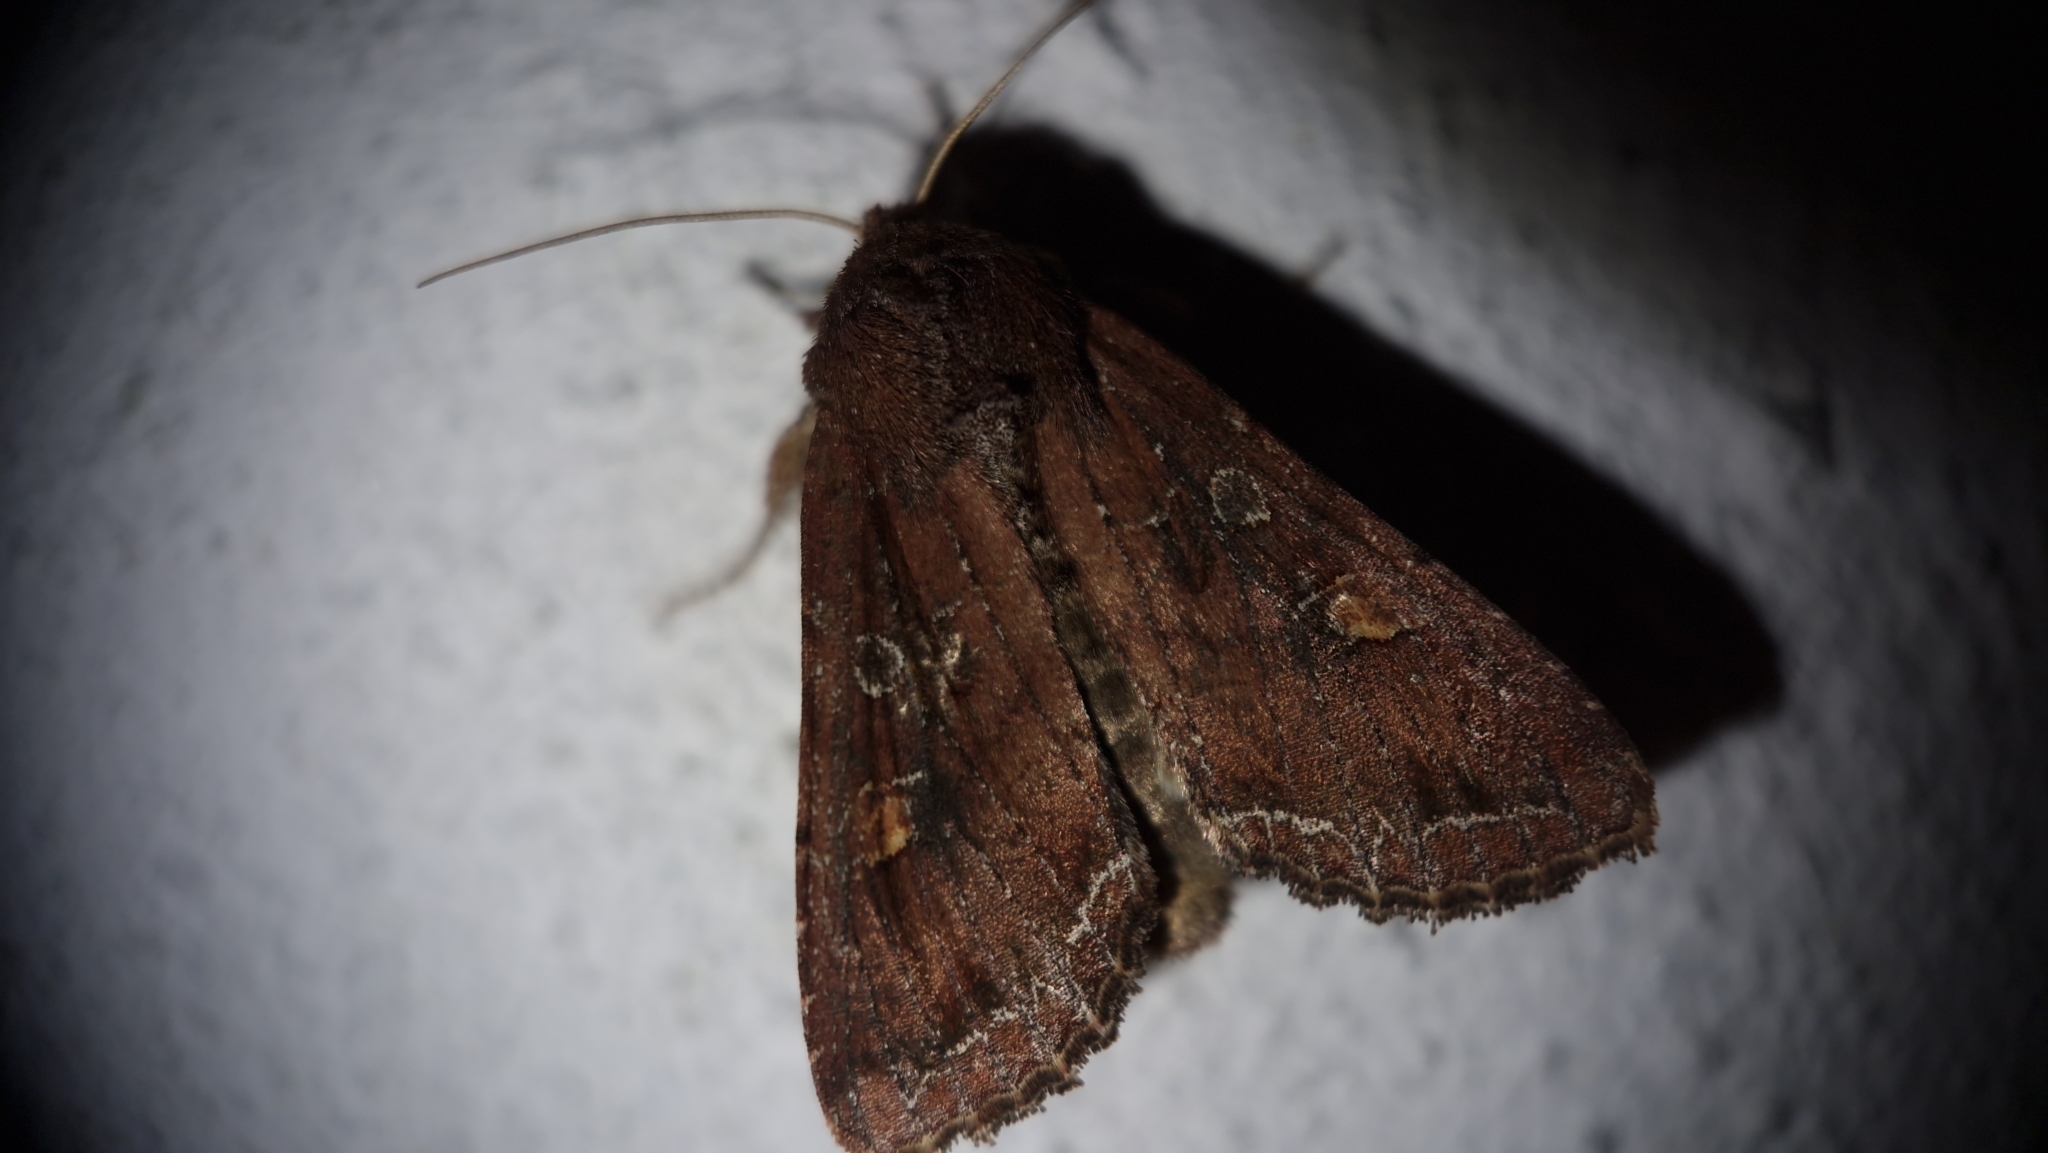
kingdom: Animalia
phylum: Arthropoda
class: Insecta
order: Lepidoptera
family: Noctuidae
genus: Lacanobia
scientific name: Lacanobia oleracea
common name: Bright-line brown-eye
